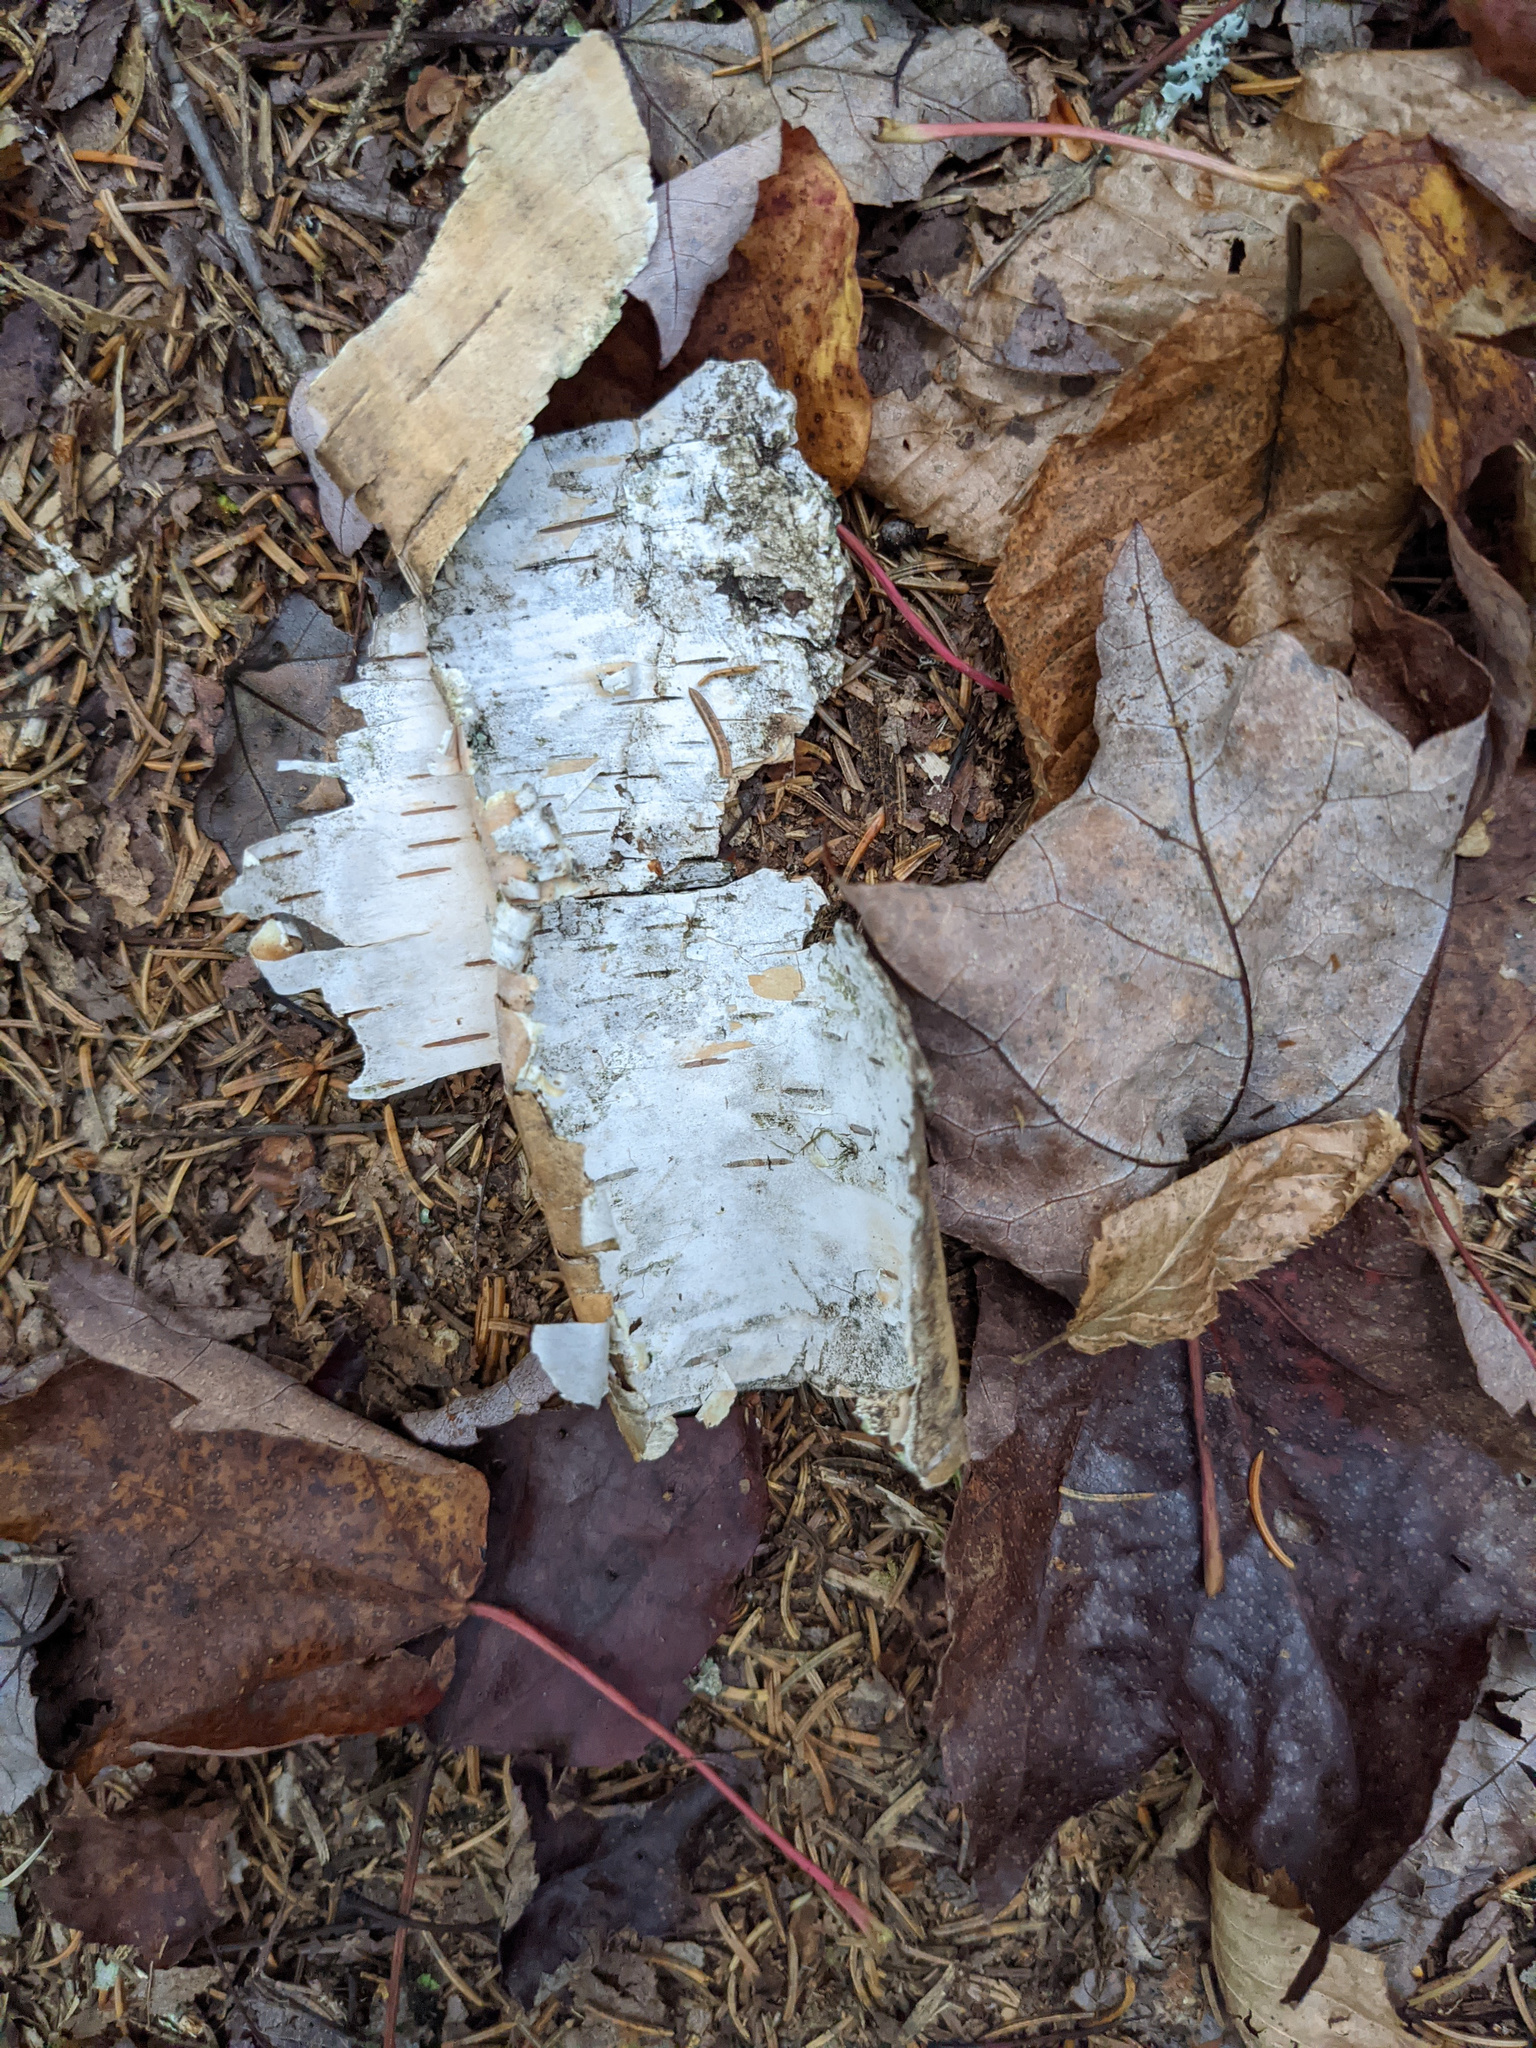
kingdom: Plantae
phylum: Tracheophyta
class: Magnoliopsida
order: Fagales
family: Betulaceae
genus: Betula
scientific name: Betula papyrifera
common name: Paper birch
